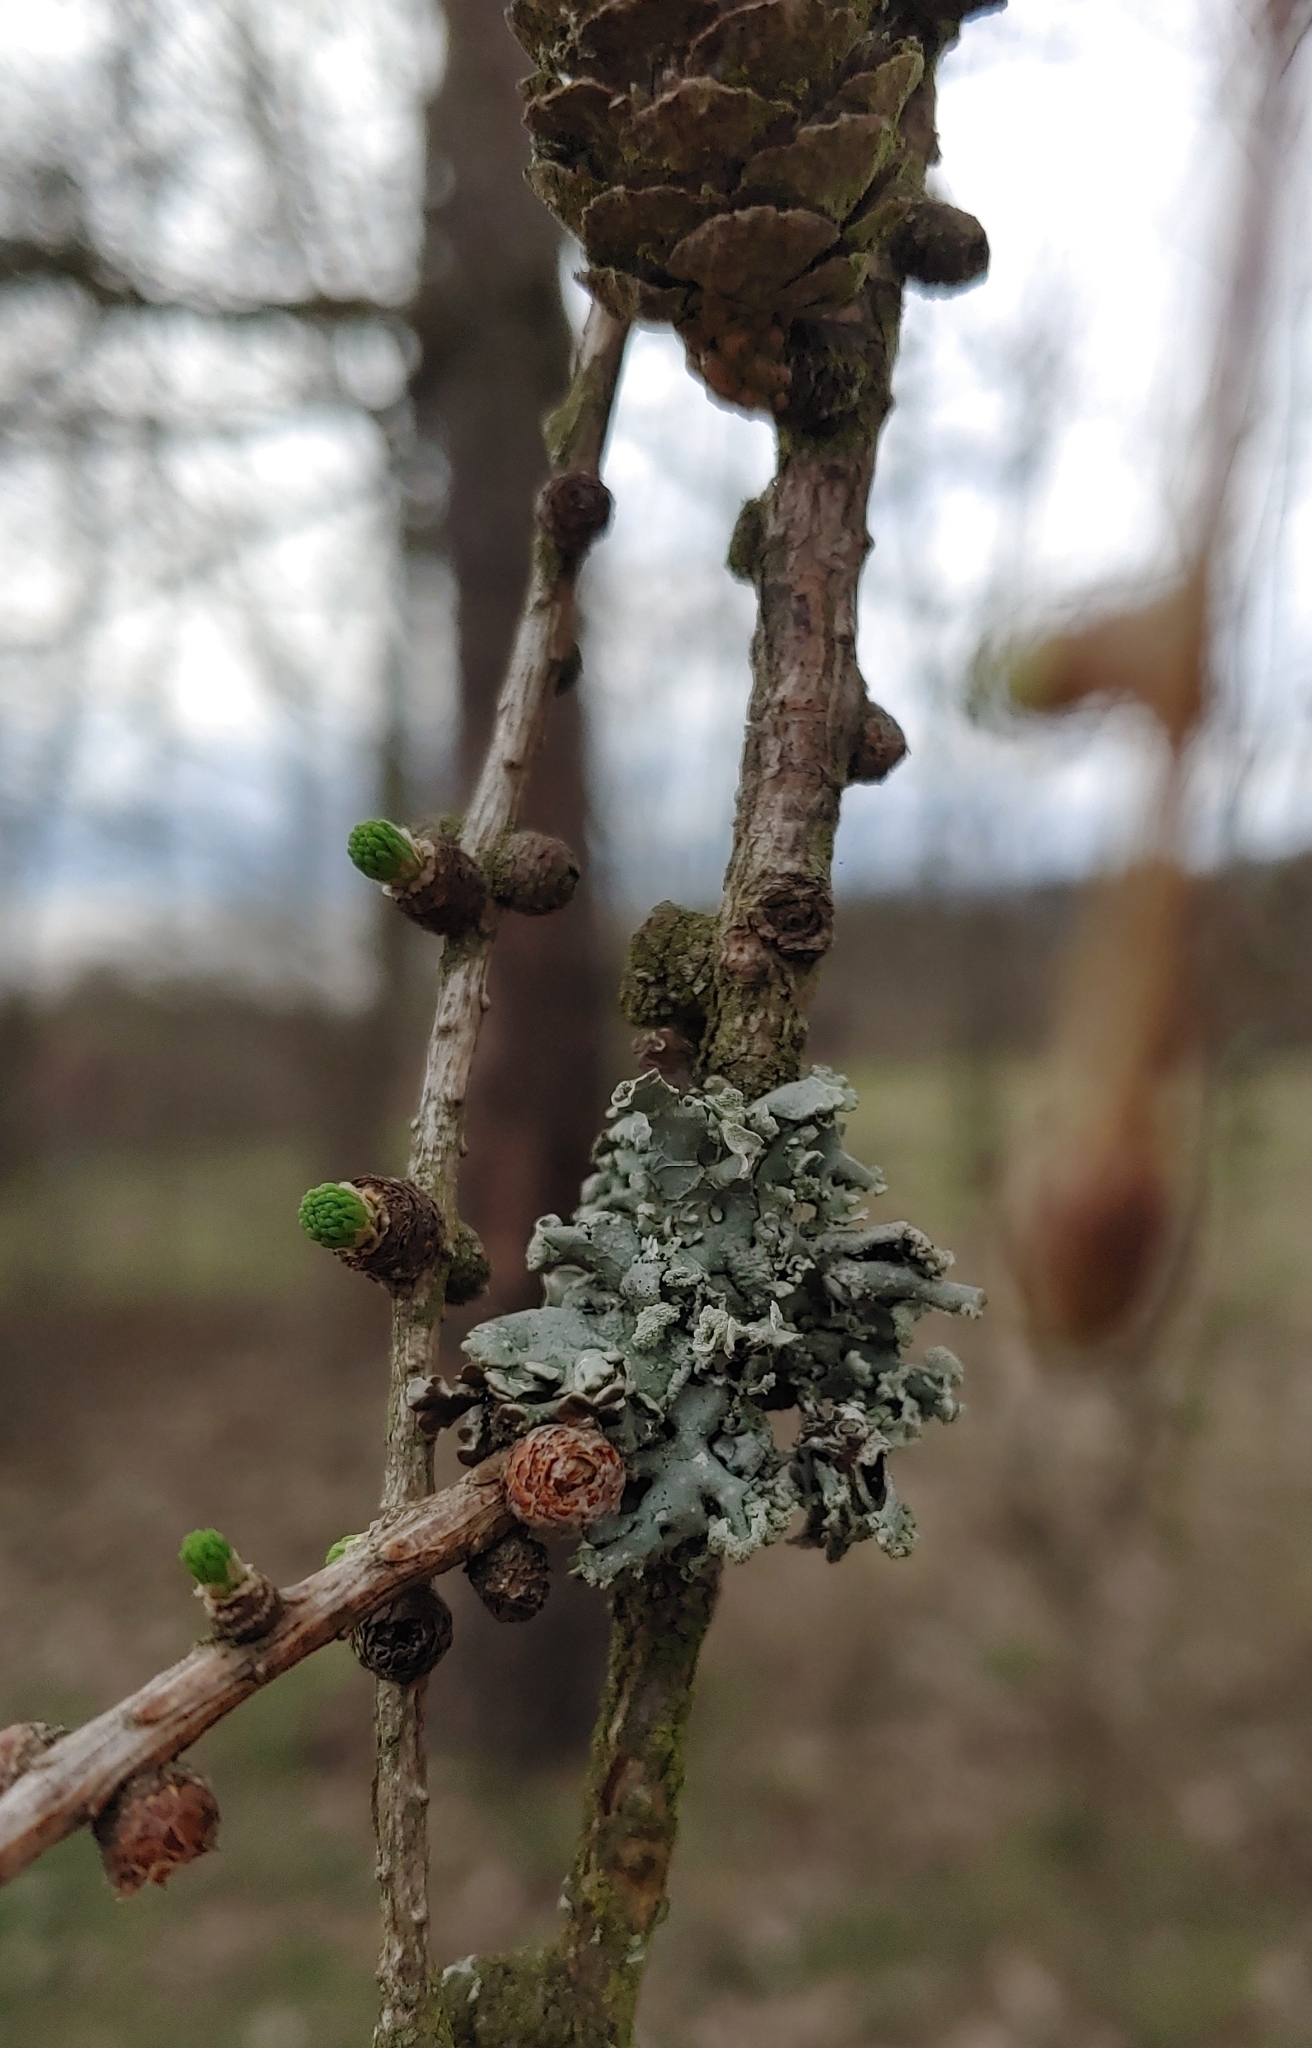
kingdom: Fungi
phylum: Ascomycota
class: Lecanoromycetes
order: Lecanorales
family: Parmeliaceae
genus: Hypogymnia
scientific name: Hypogymnia physodes
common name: Dark crottle
